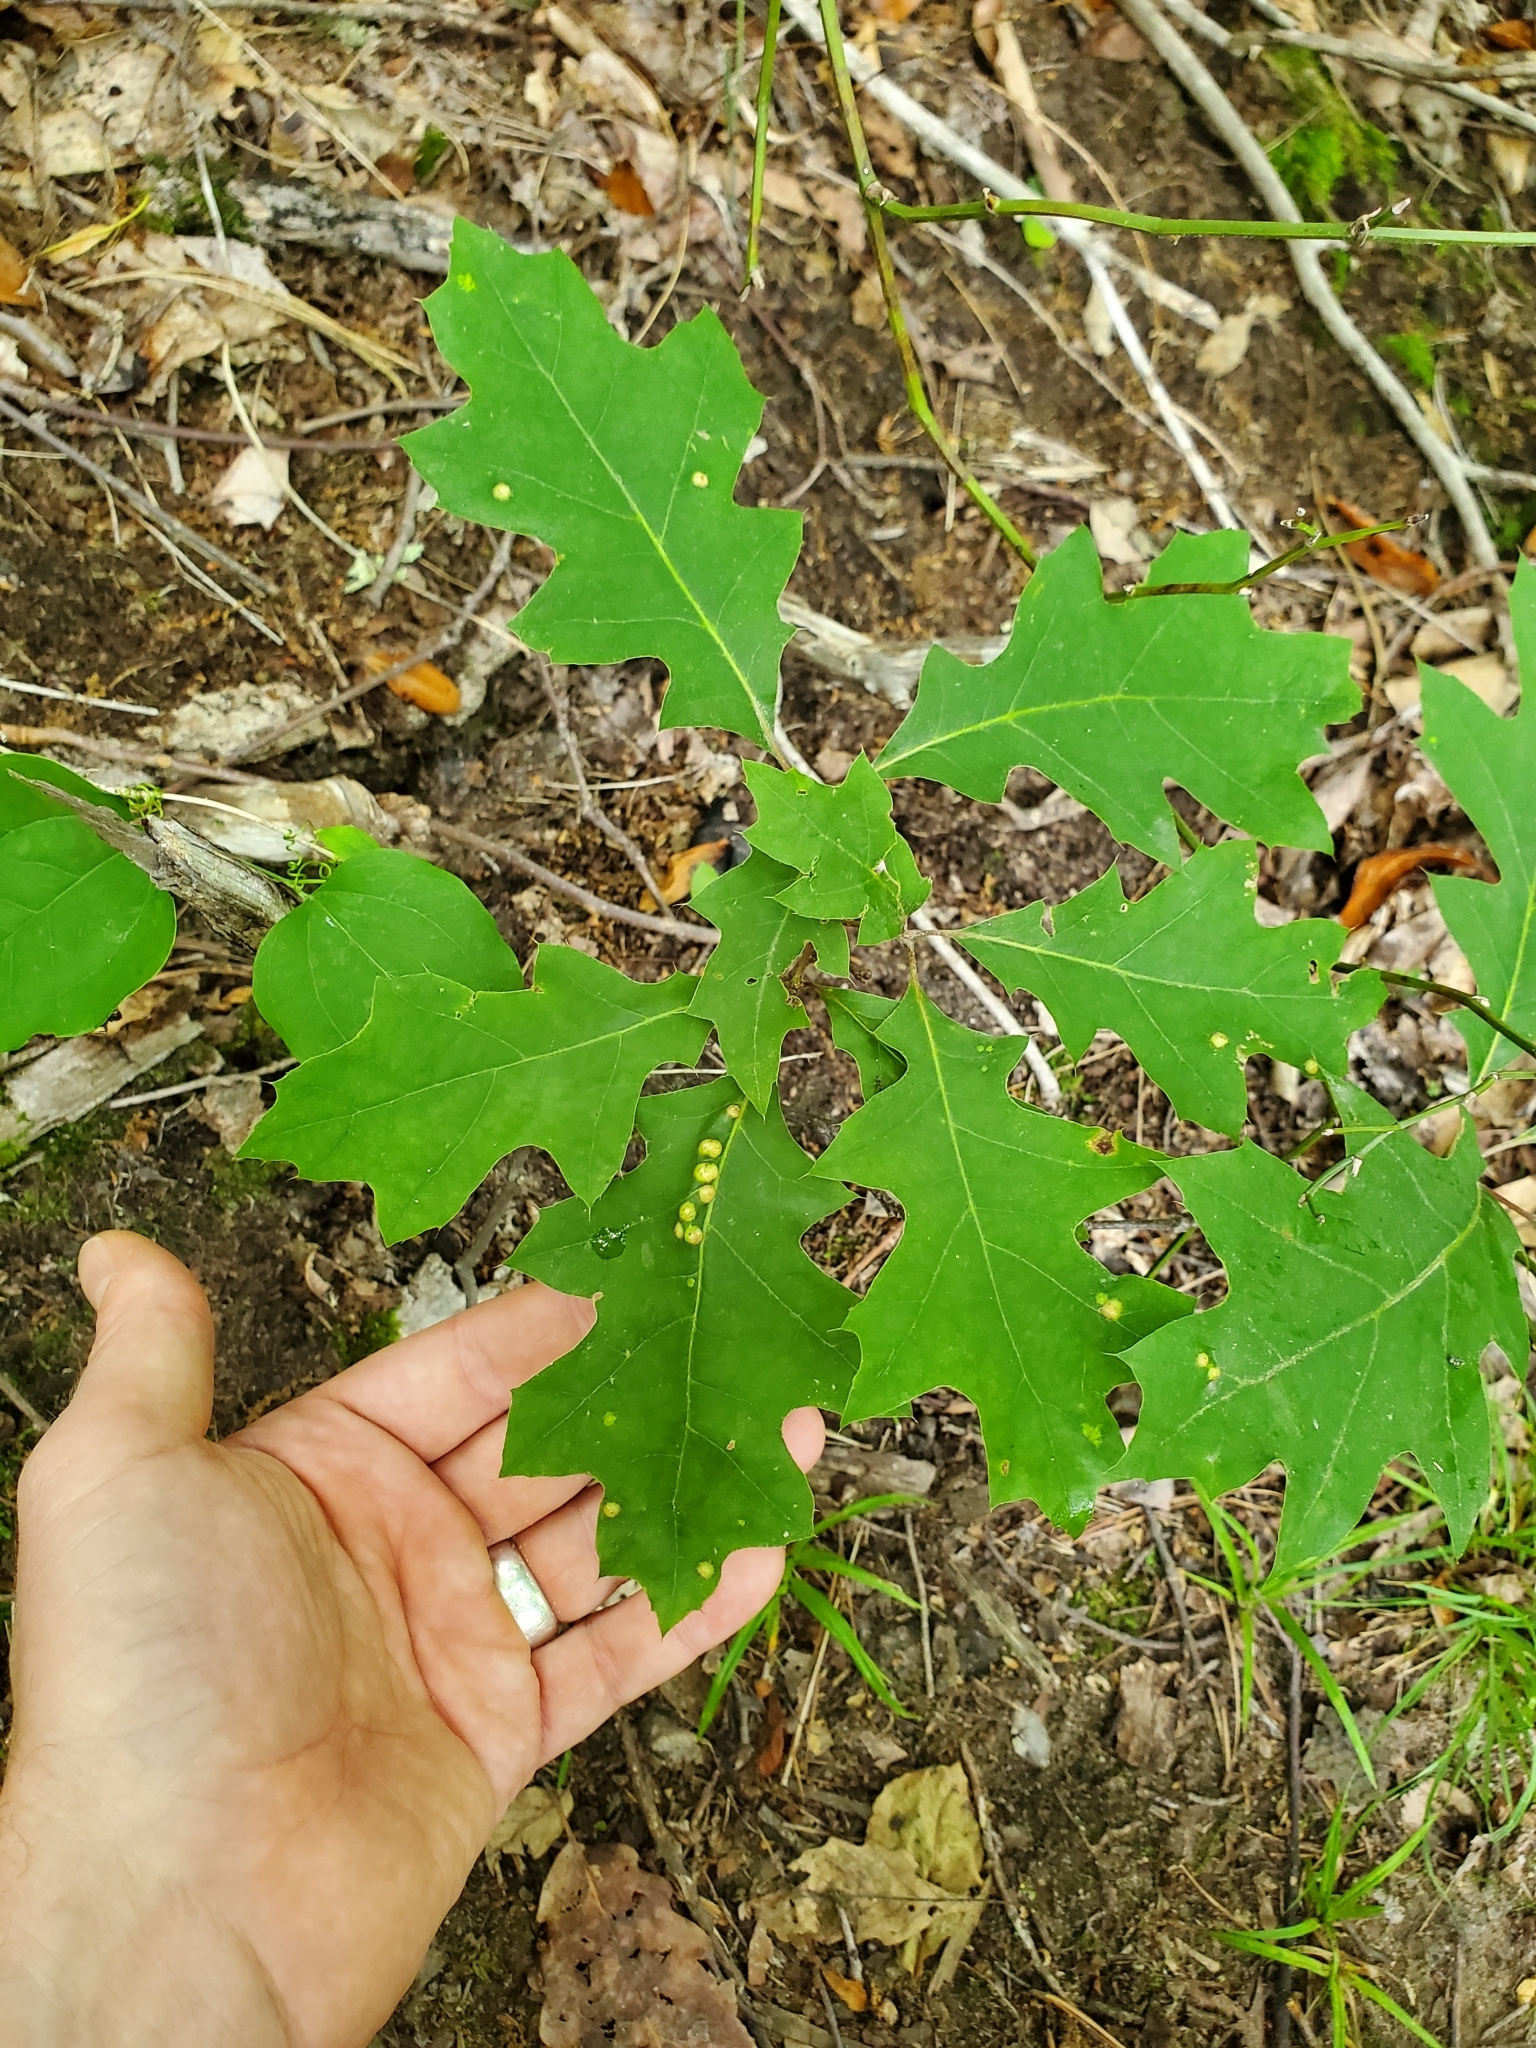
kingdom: Animalia
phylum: Arthropoda
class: Insecta
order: Diptera
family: Cecidomyiidae
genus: Polystepha
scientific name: Polystepha pilulae
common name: Oak leaf gall midge
